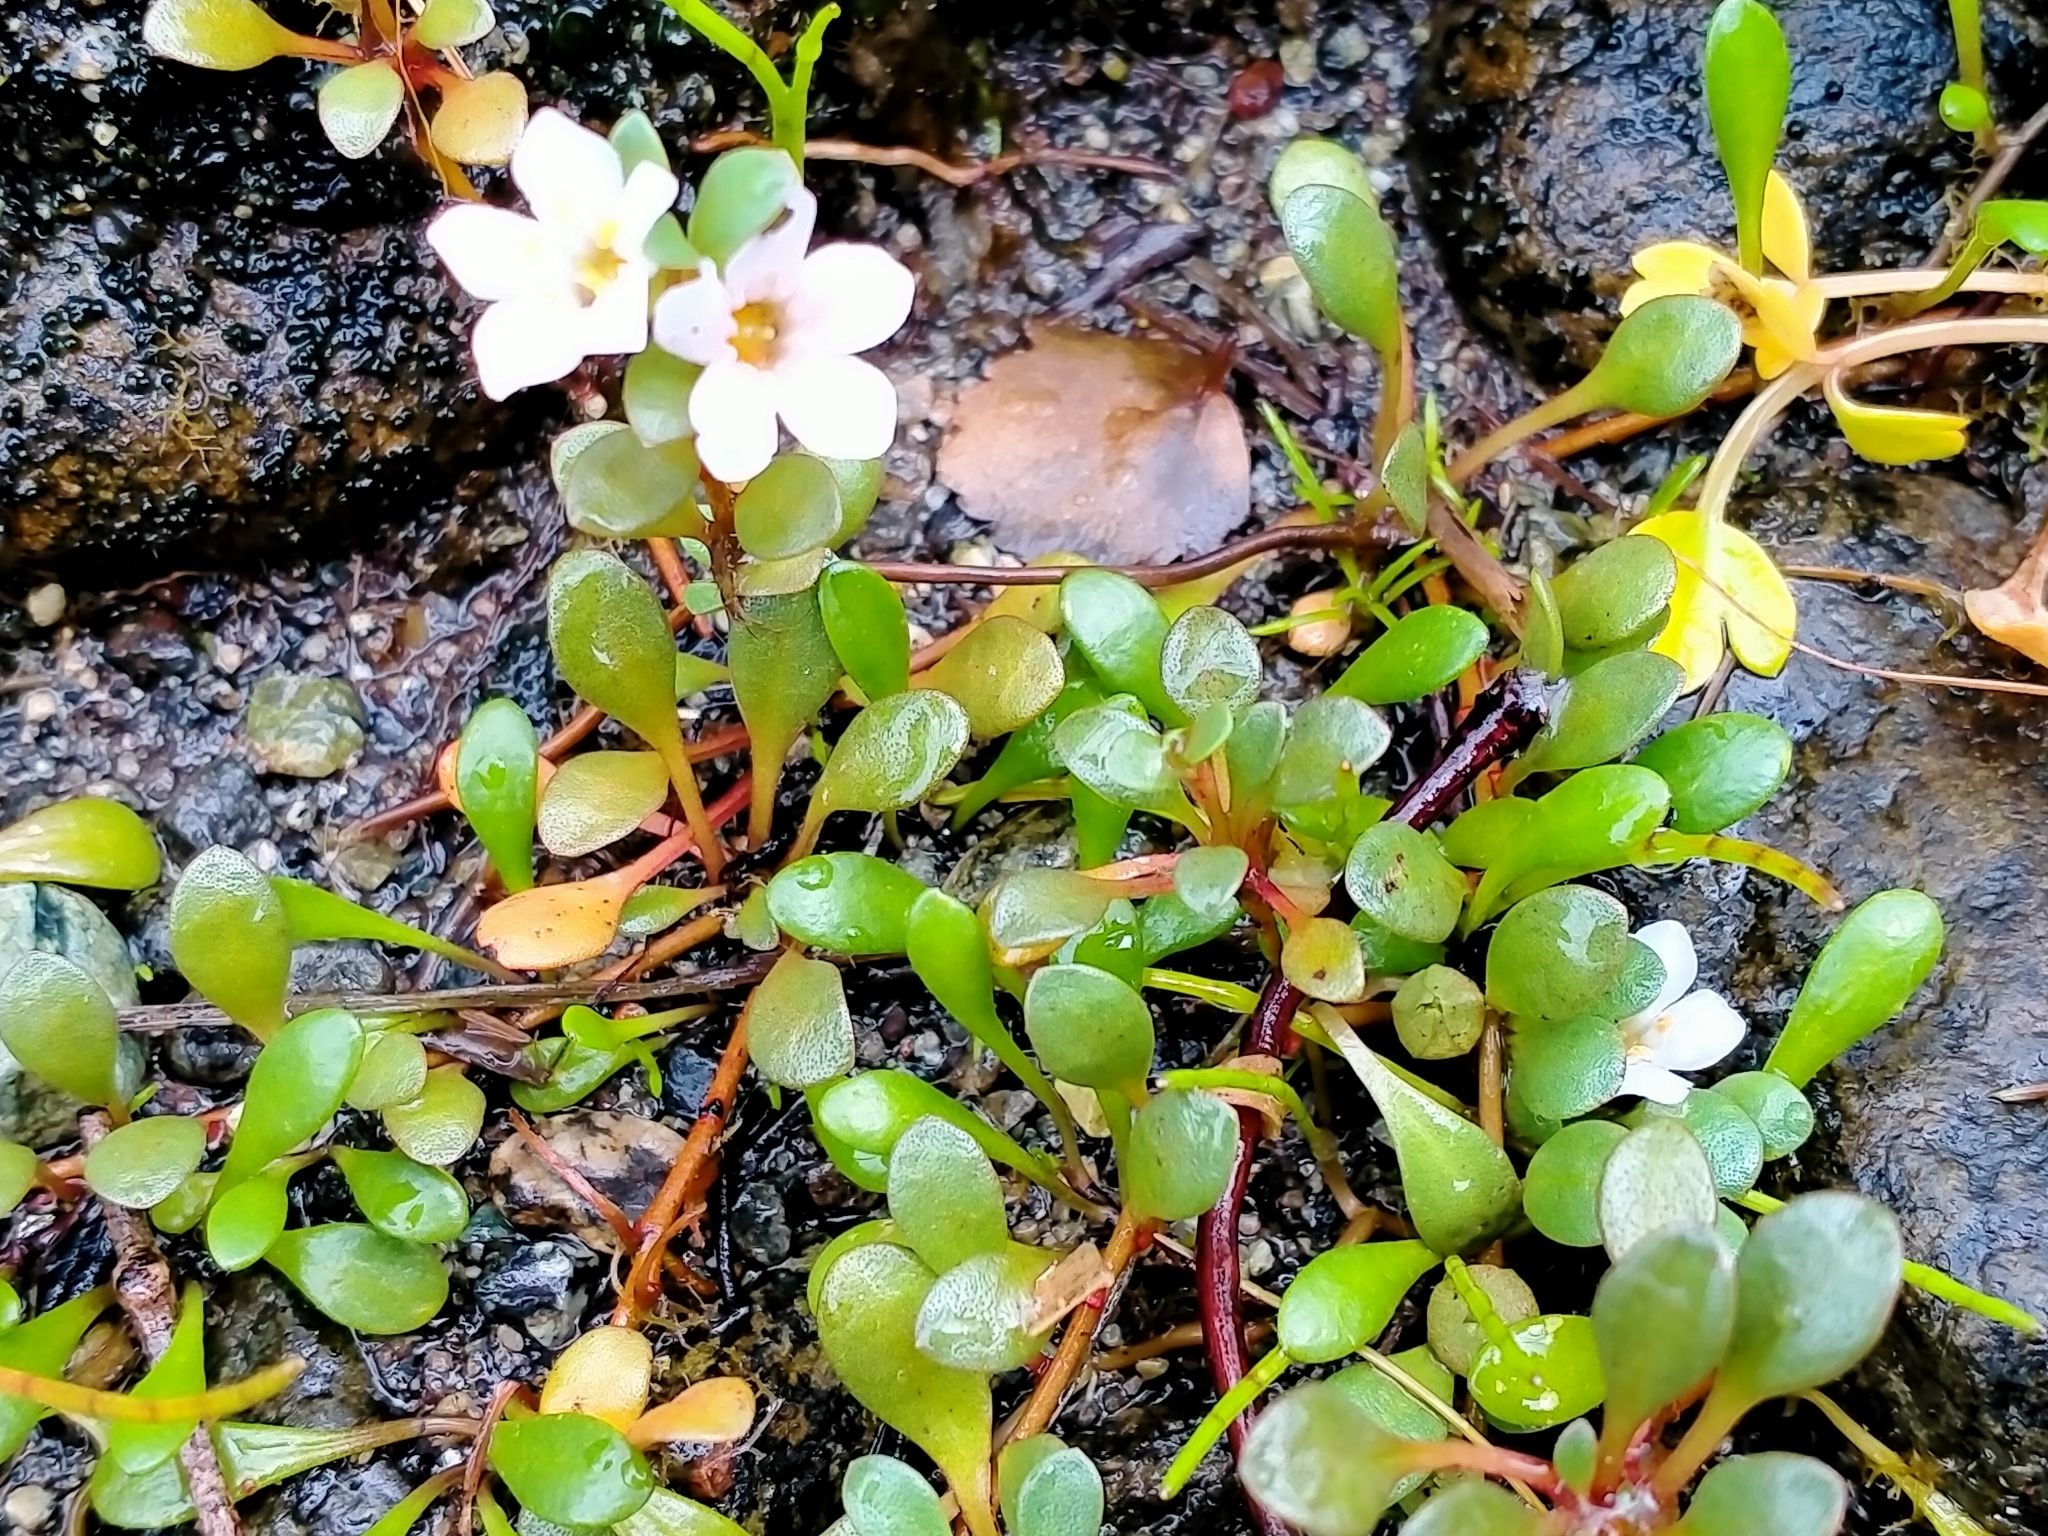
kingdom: Plantae
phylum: Tracheophyta
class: Magnoliopsida
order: Ericales
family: Primulaceae
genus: Samolus
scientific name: Samolus repens
